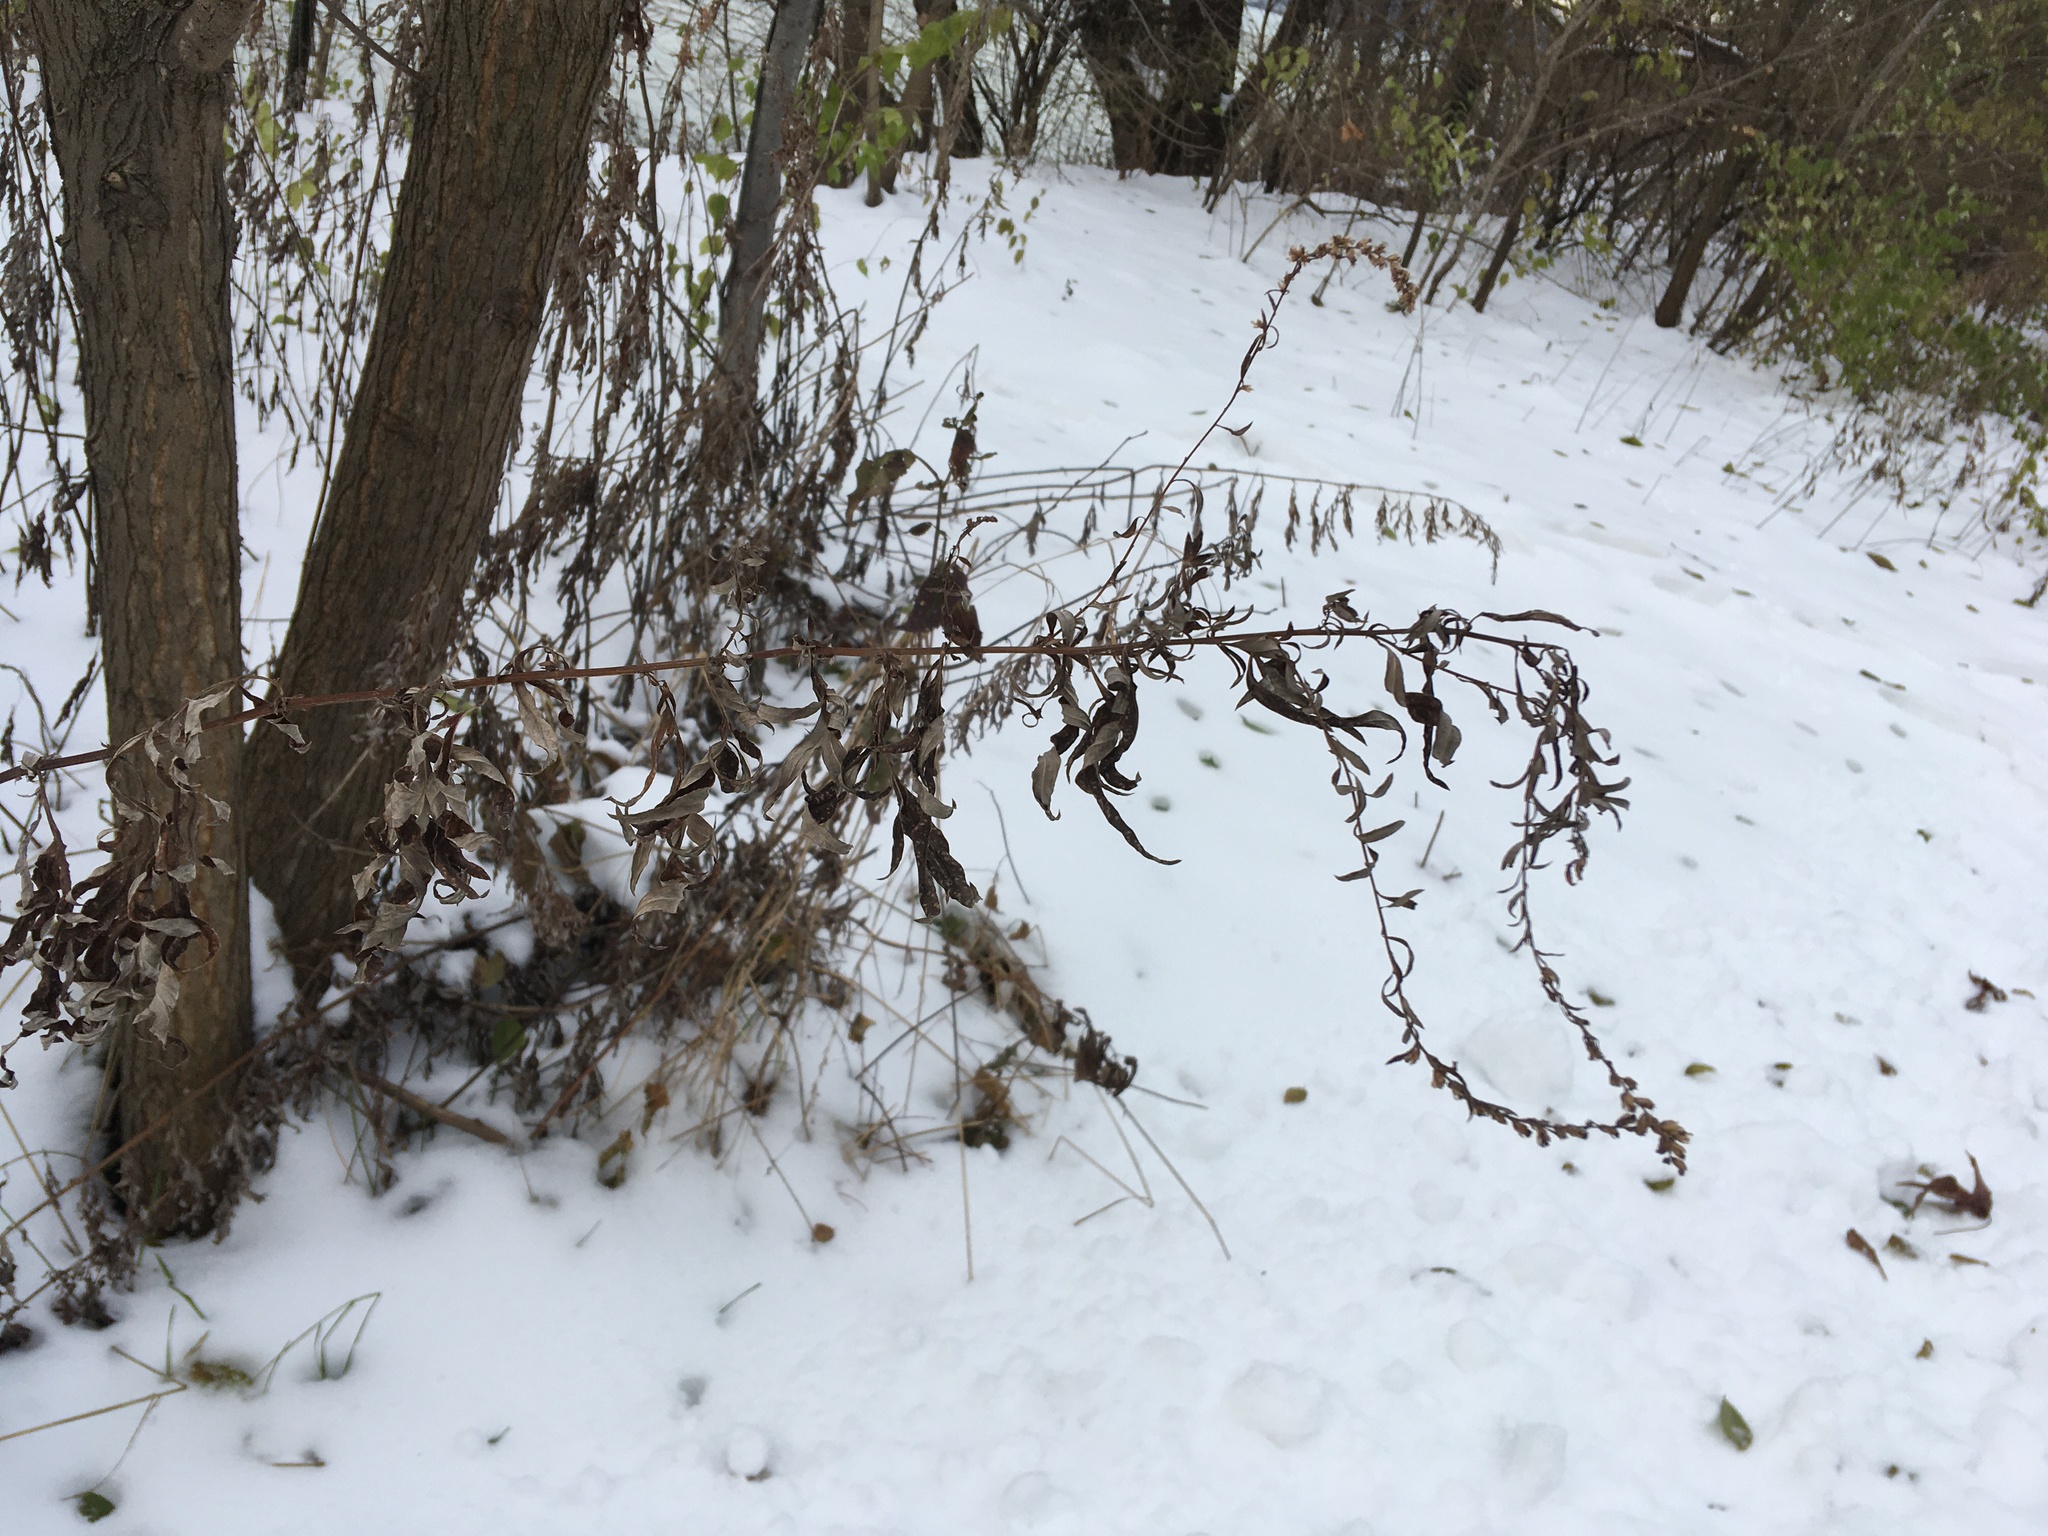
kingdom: Plantae
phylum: Tracheophyta
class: Magnoliopsida
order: Asterales
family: Asteraceae
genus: Artemisia
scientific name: Artemisia vulgaris
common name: Mugwort
